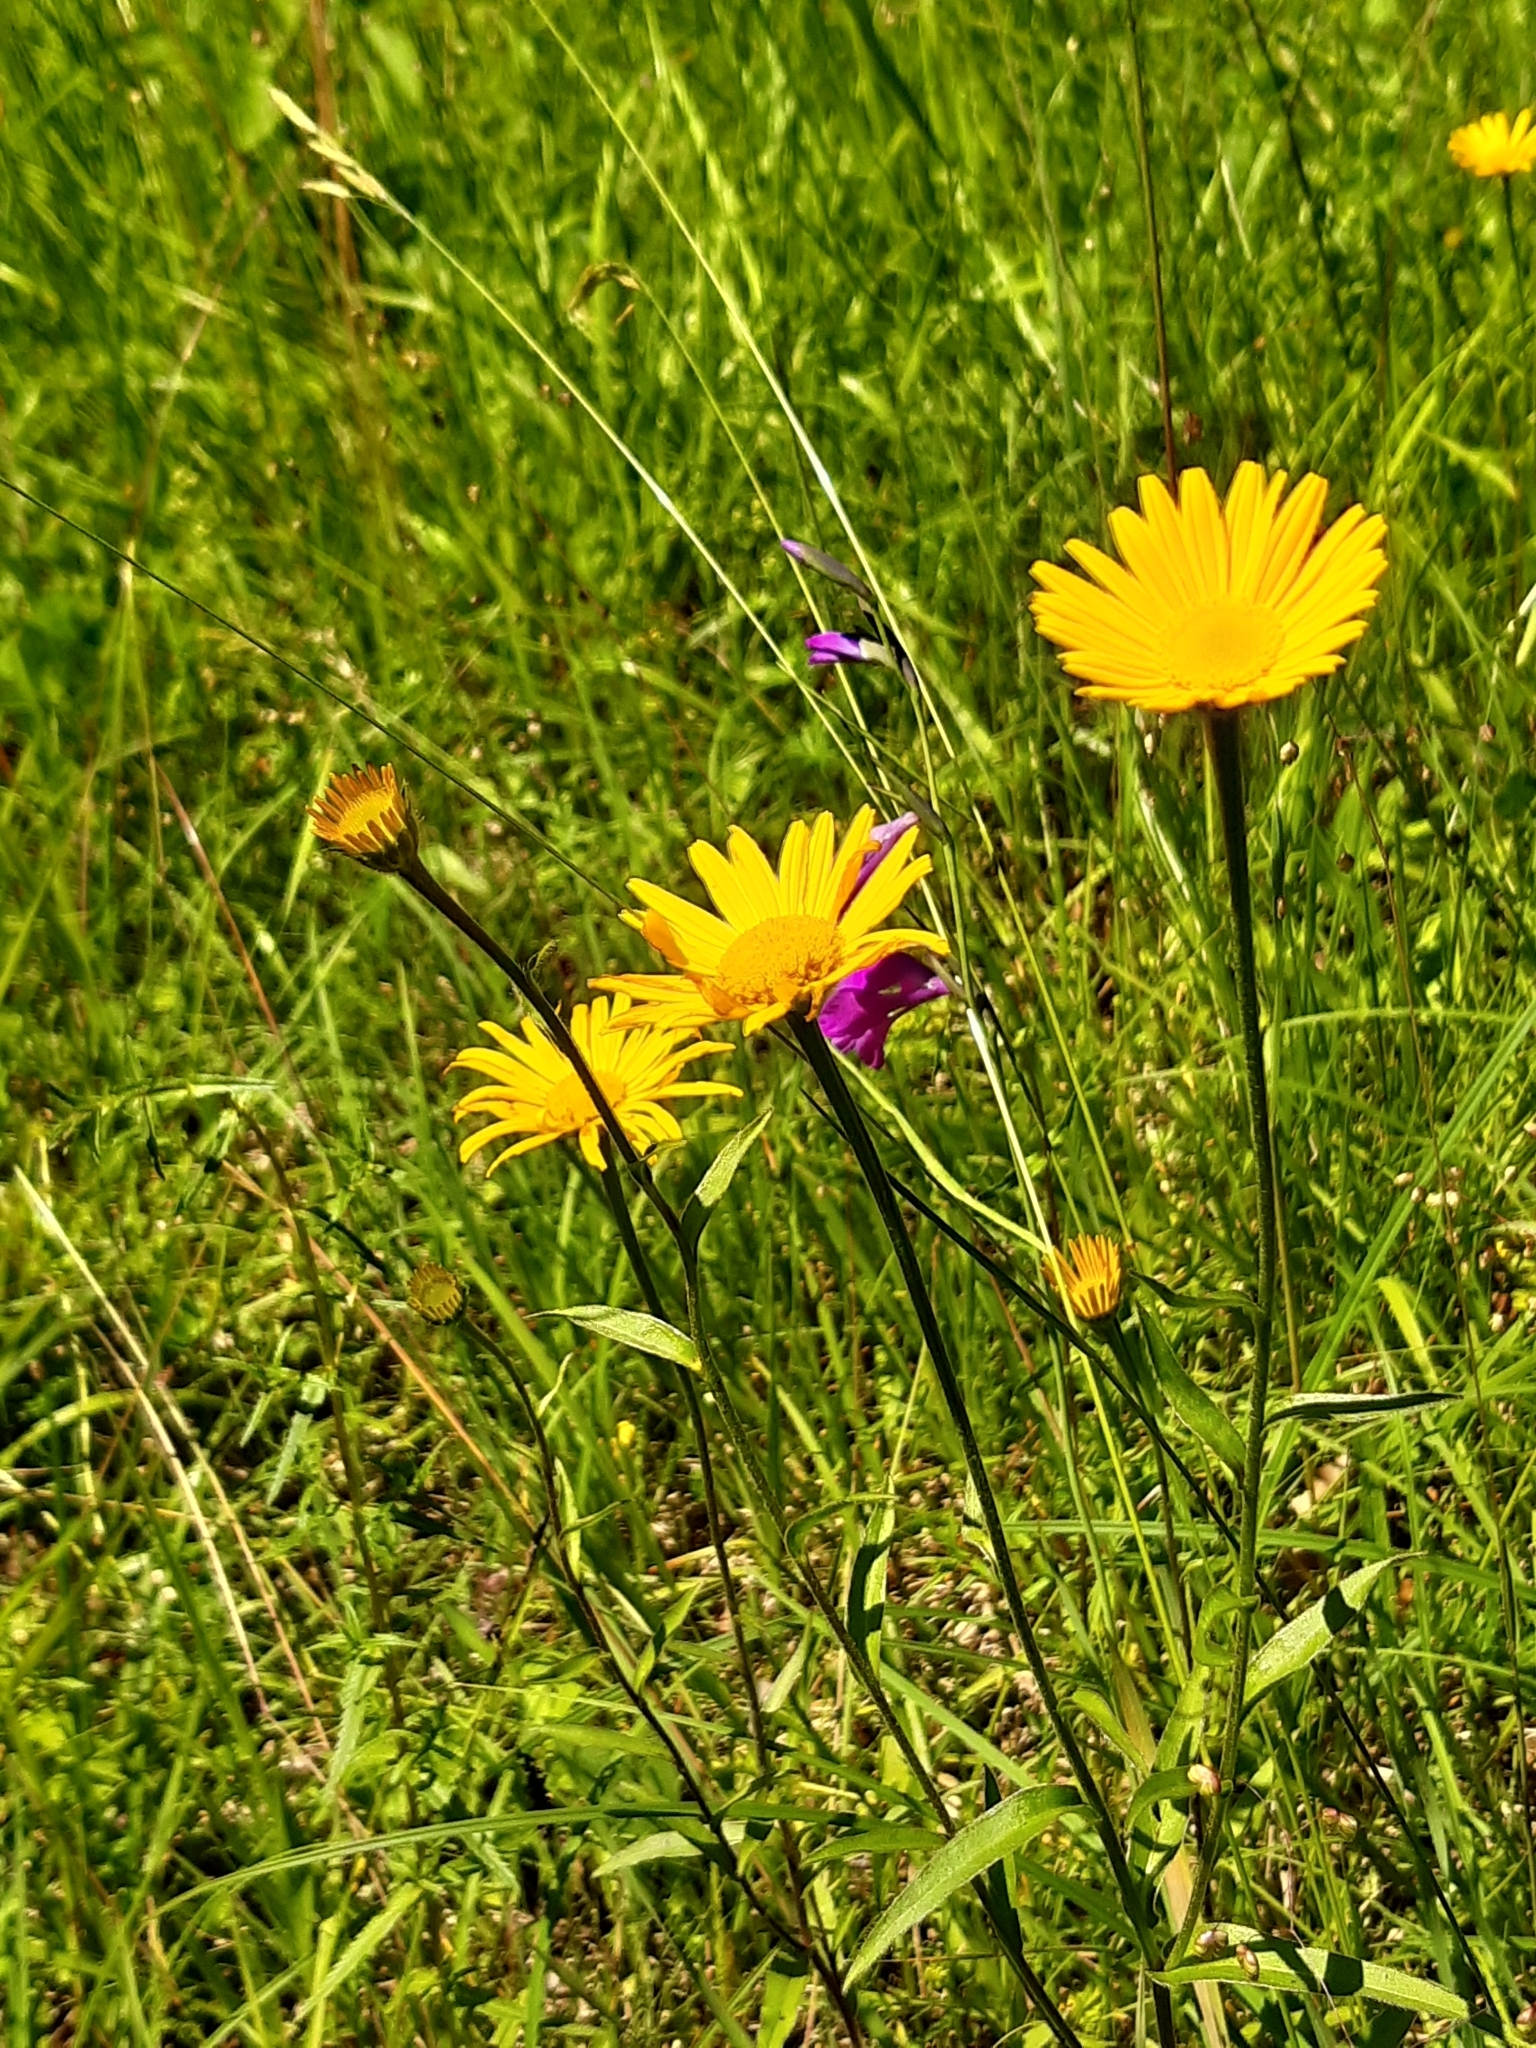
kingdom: Plantae
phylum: Tracheophyta
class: Magnoliopsida
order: Asterales
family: Asteraceae
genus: Buphthalmum
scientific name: Buphthalmum salicifolium
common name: Willow-leaved yellow-oxeye
